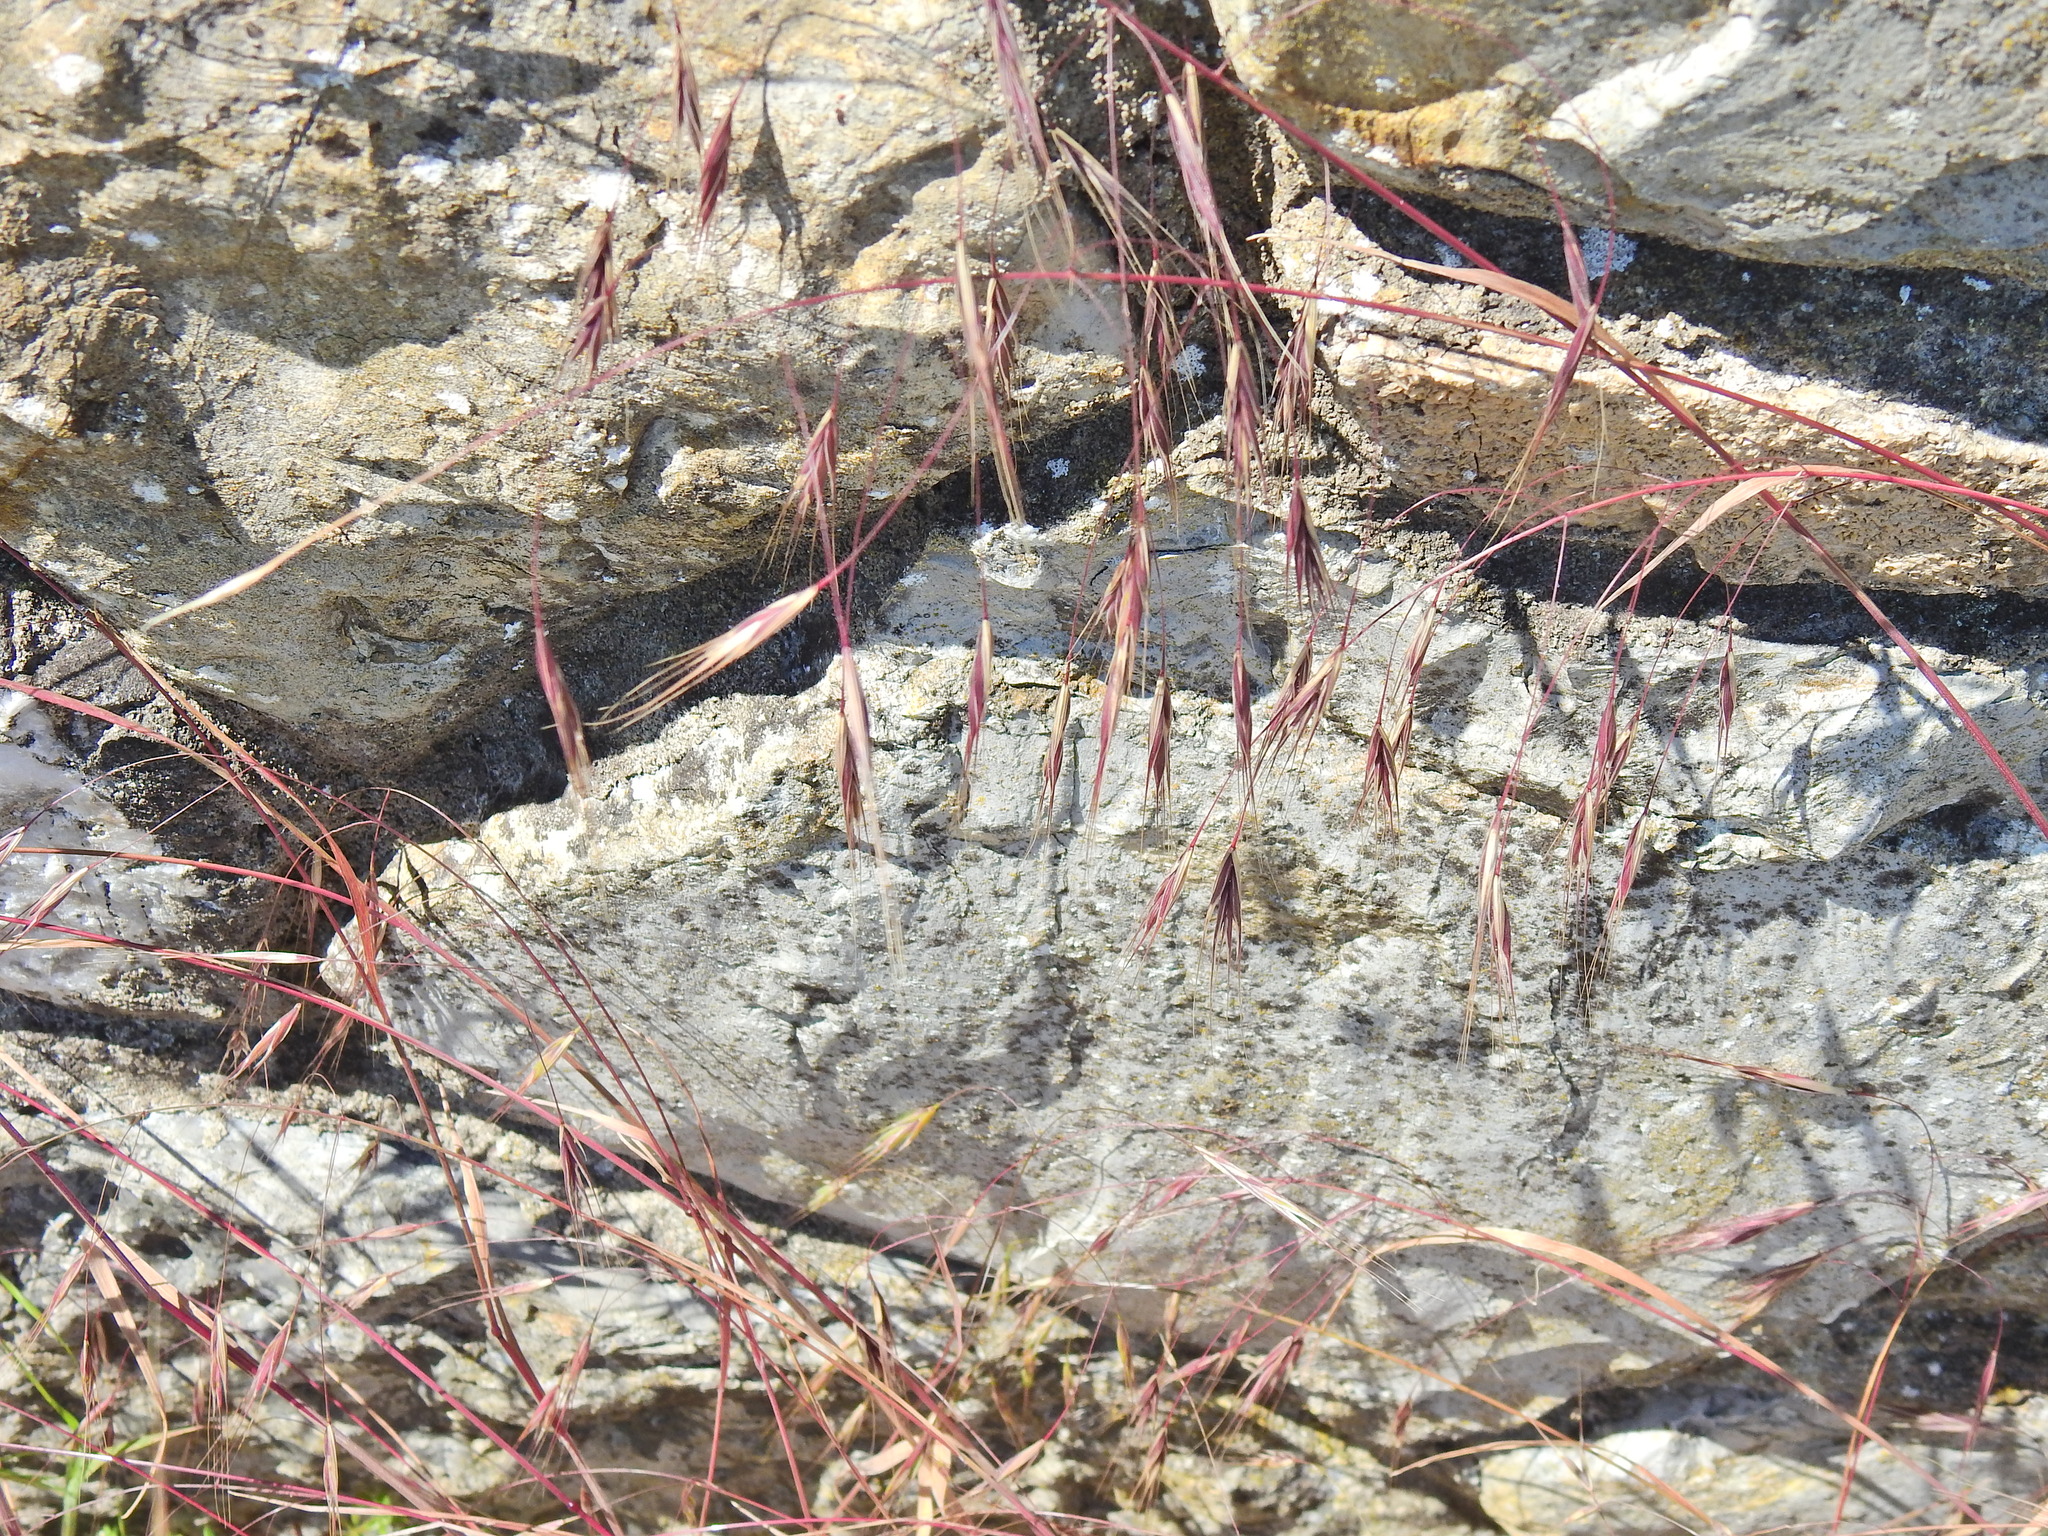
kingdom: Plantae
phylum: Tracheophyta
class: Liliopsida
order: Poales
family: Poaceae
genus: Bromus
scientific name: Bromus sterilis
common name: Poverty brome
